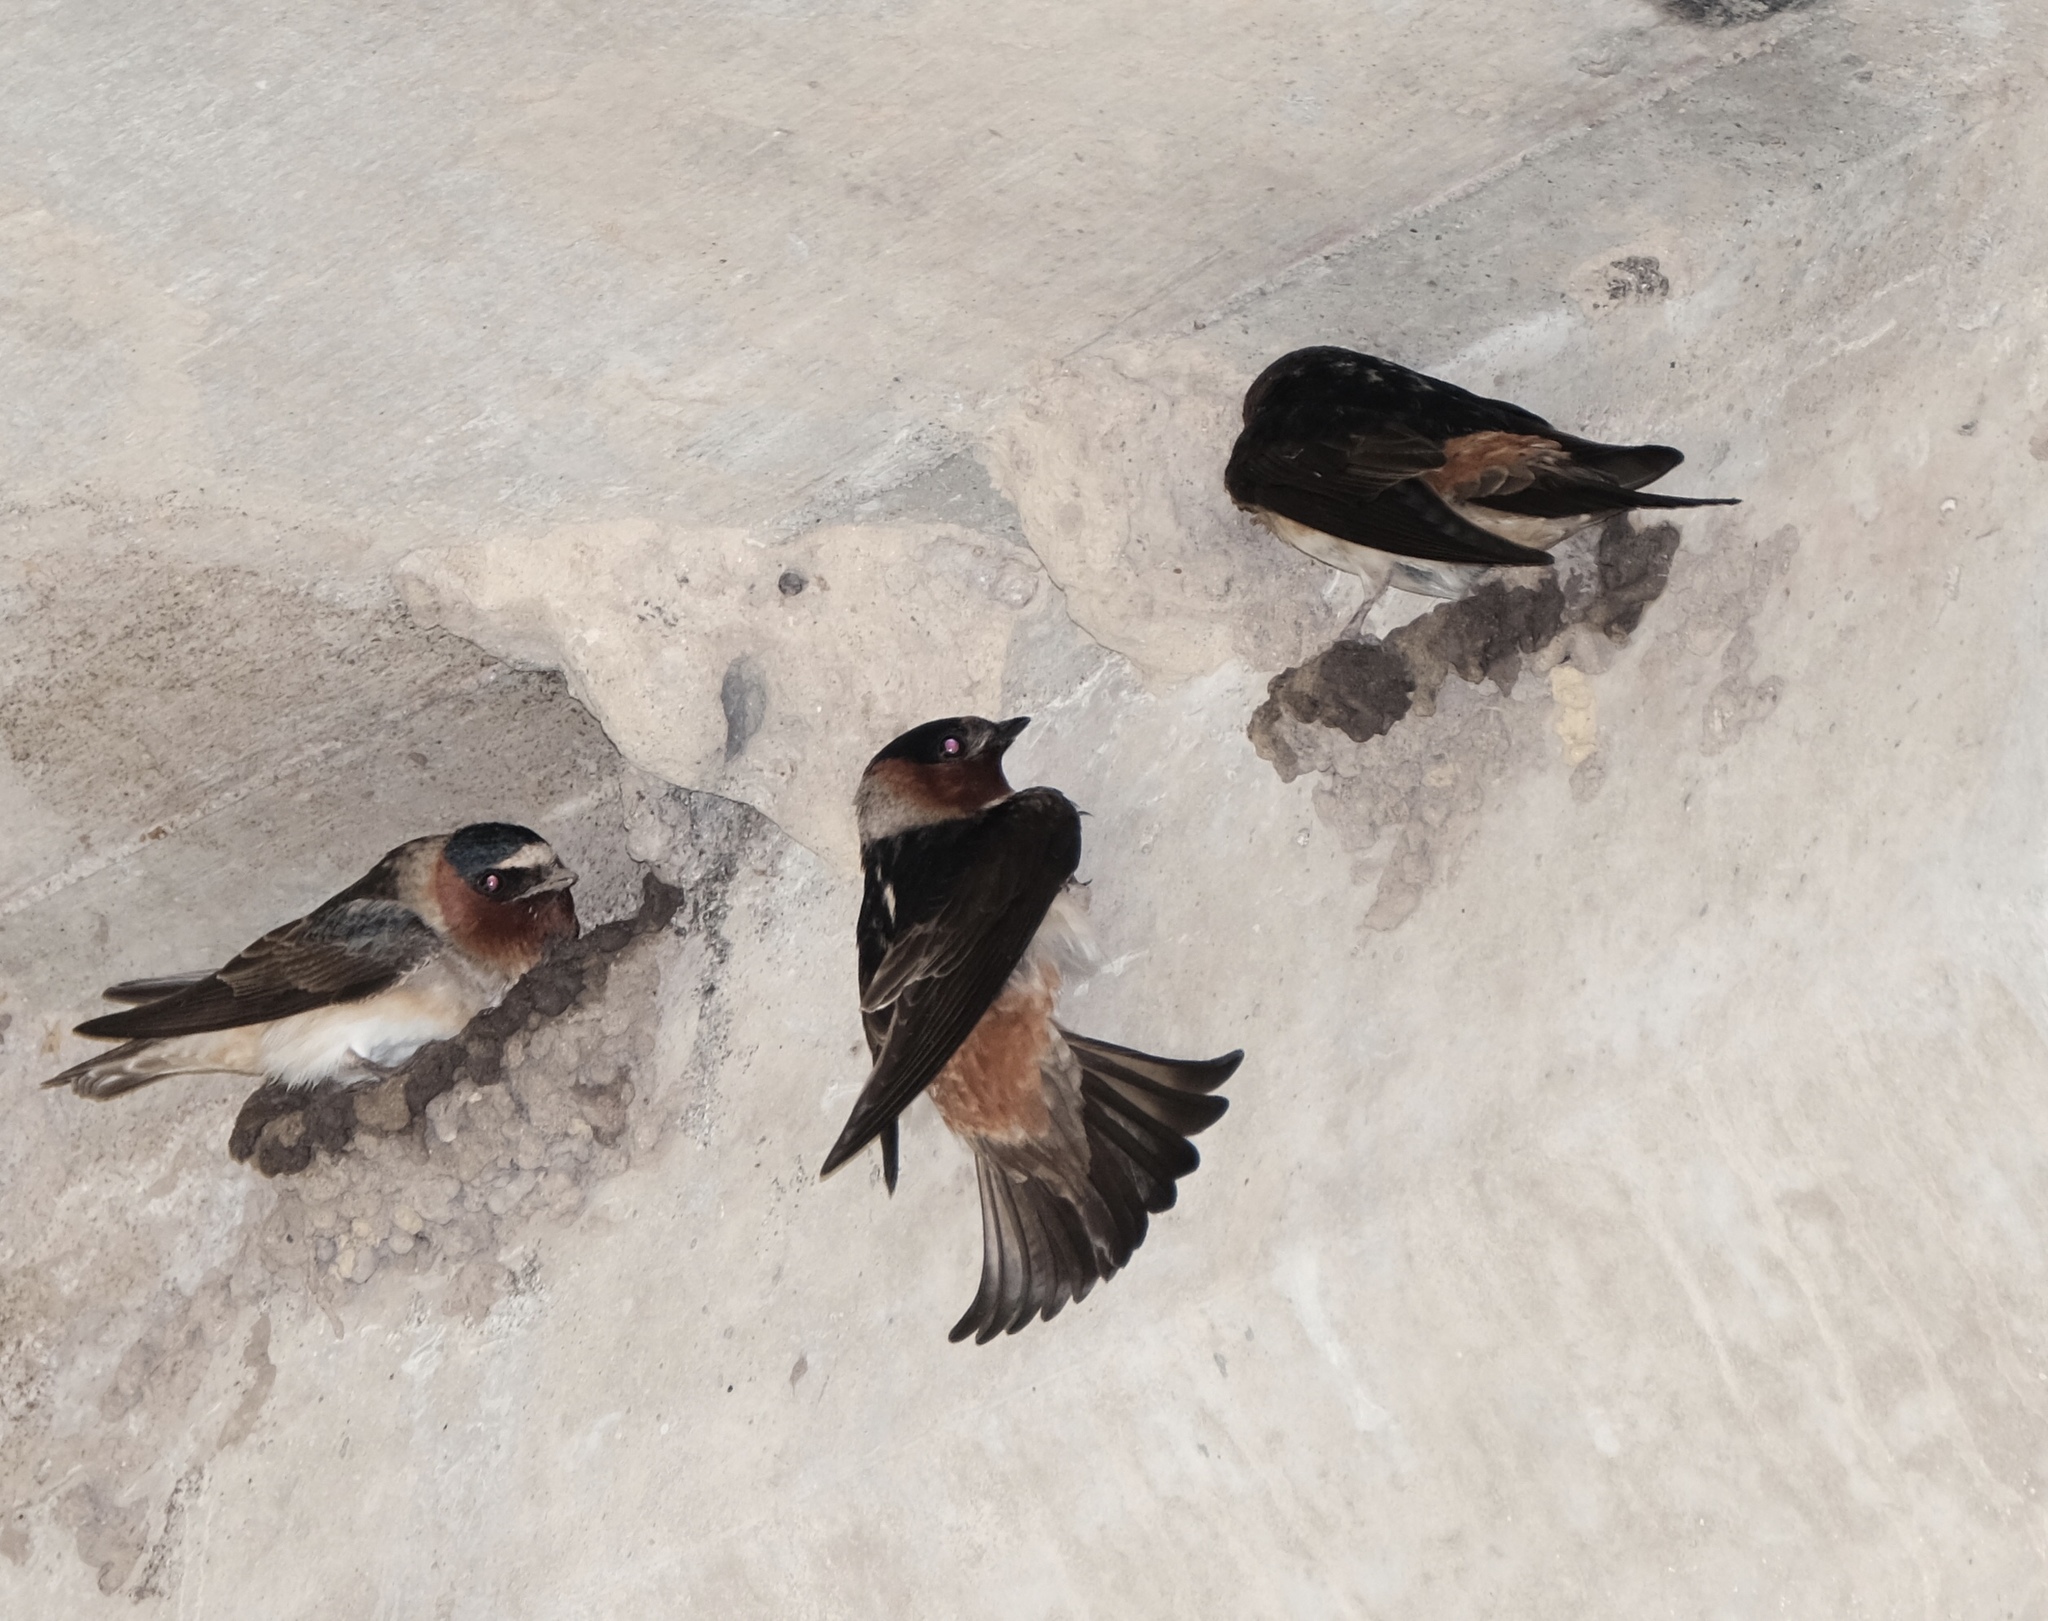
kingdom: Animalia
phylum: Chordata
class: Aves
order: Passeriformes
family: Hirundinidae
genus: Petrochelidon
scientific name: Petrochelidon pyrrhonota
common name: American cliff swallow
